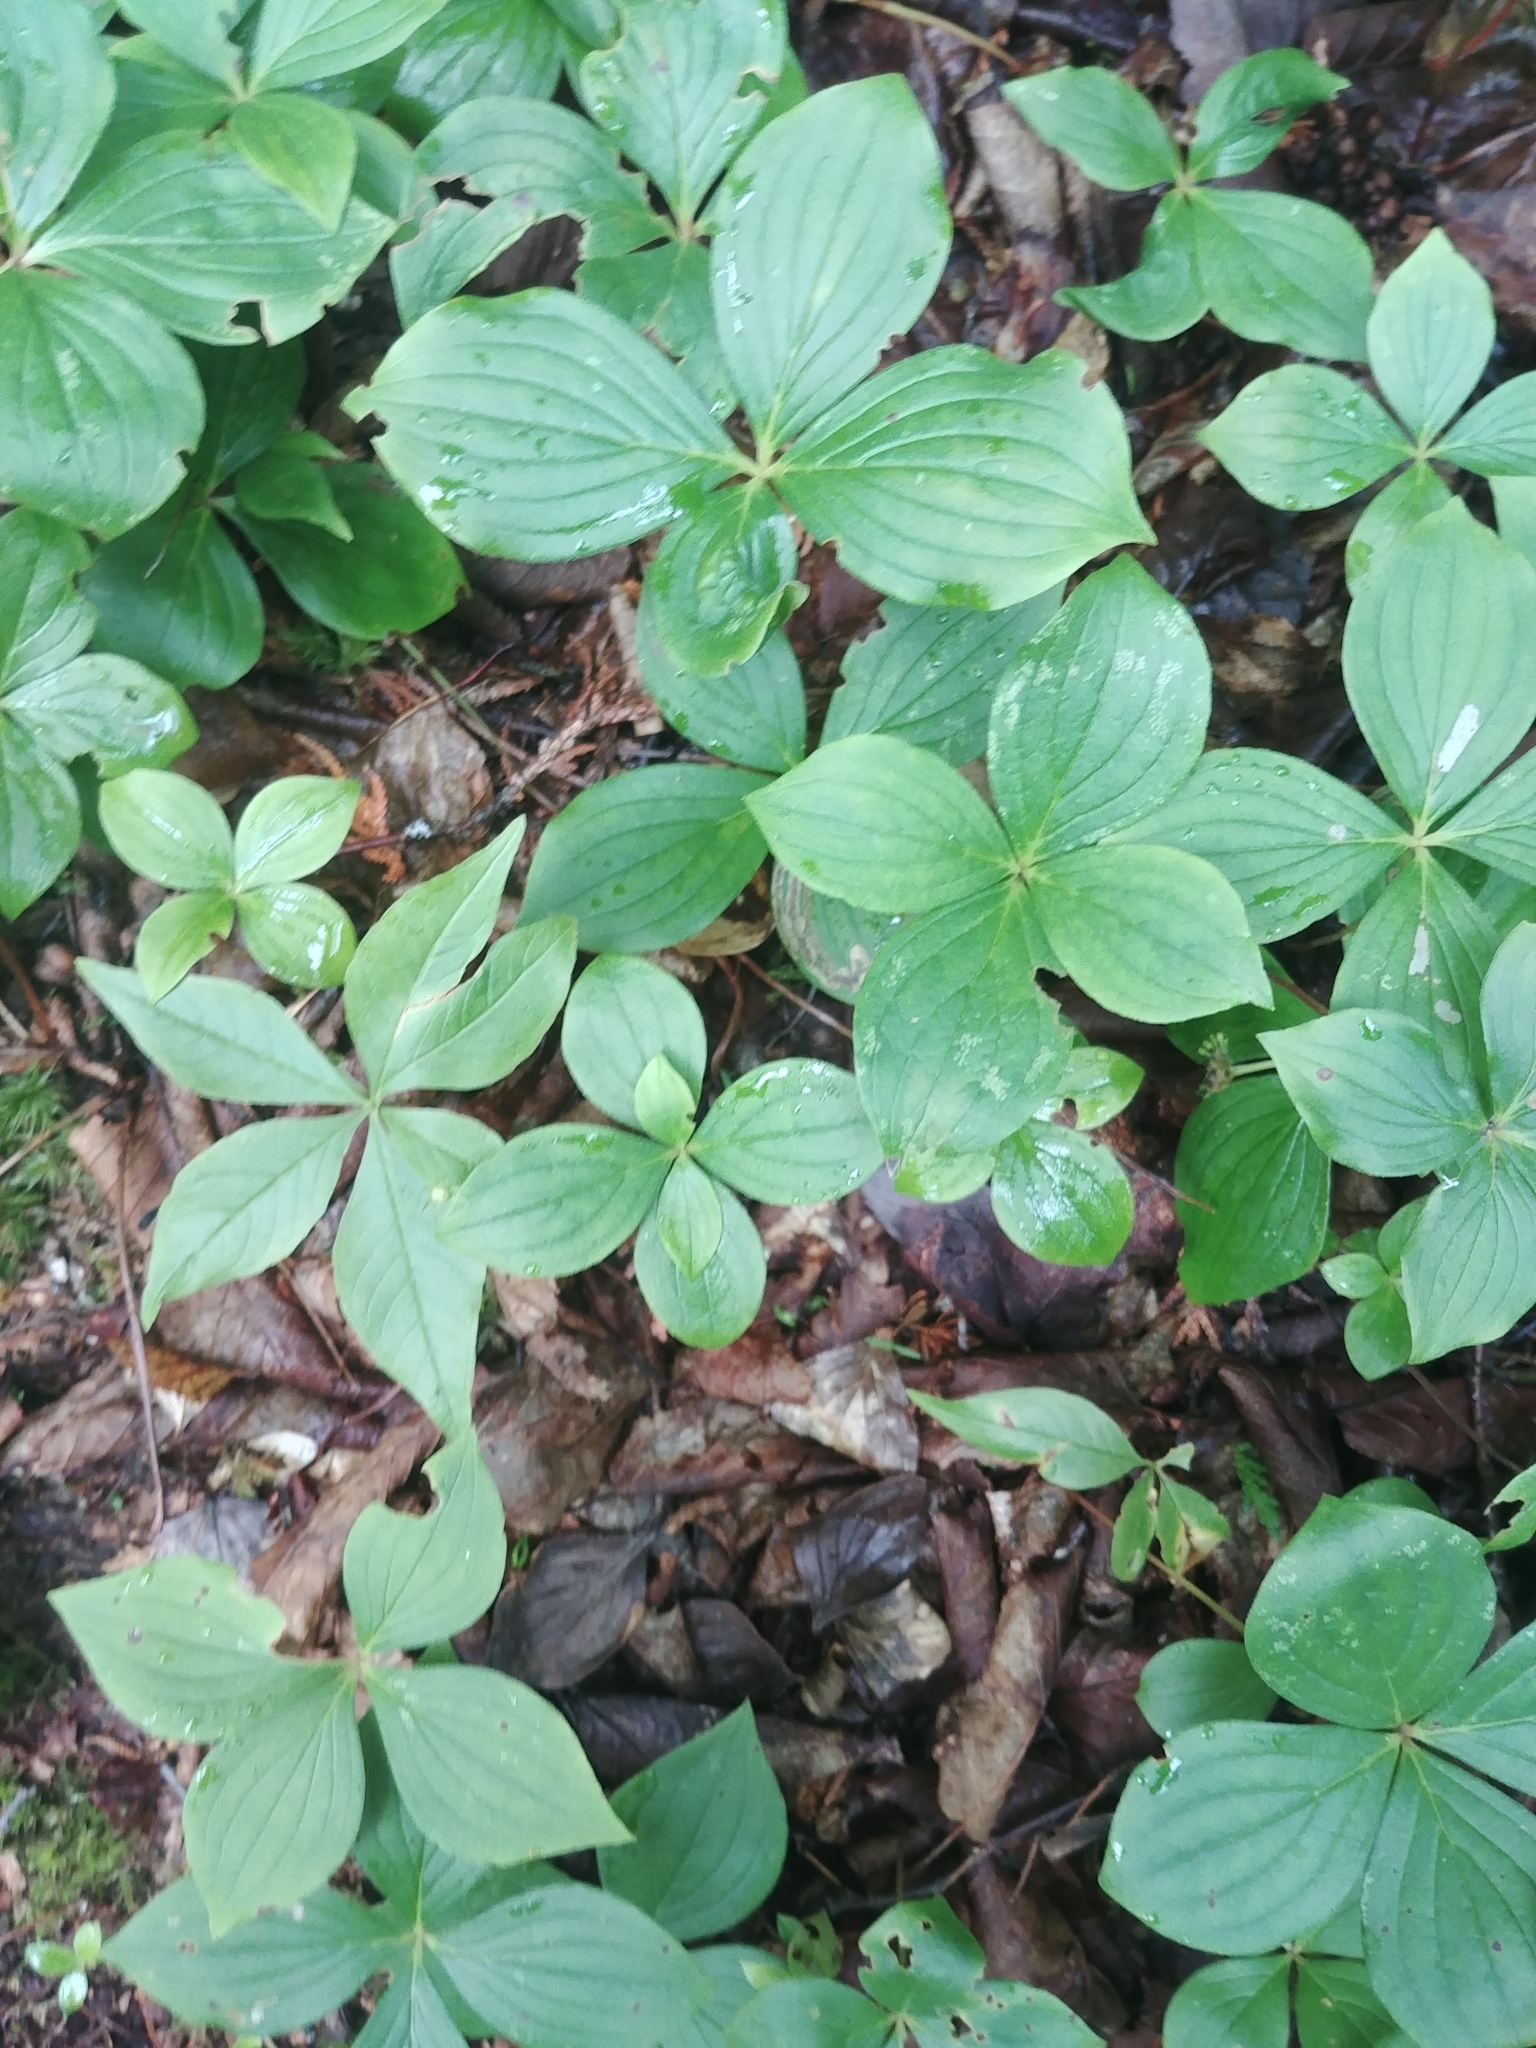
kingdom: Plantae
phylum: Tracheophyta
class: Magnoliopsida
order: Cornales
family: Cornaceae
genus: Cornus
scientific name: Cornus canadensis
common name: Creeping dogwood
